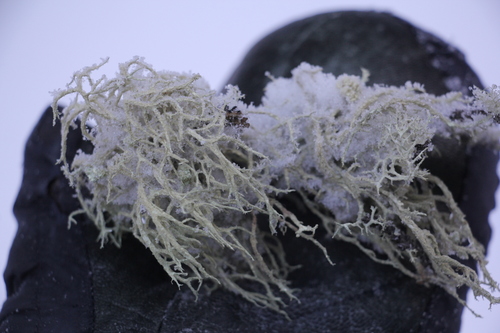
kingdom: Fungi
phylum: Ascomycota
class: Lecanoromycetes
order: Lecanorales
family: Parmeliaceae
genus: Evernia
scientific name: Evernia mesomorpha
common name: Boreal oak moss lichen
